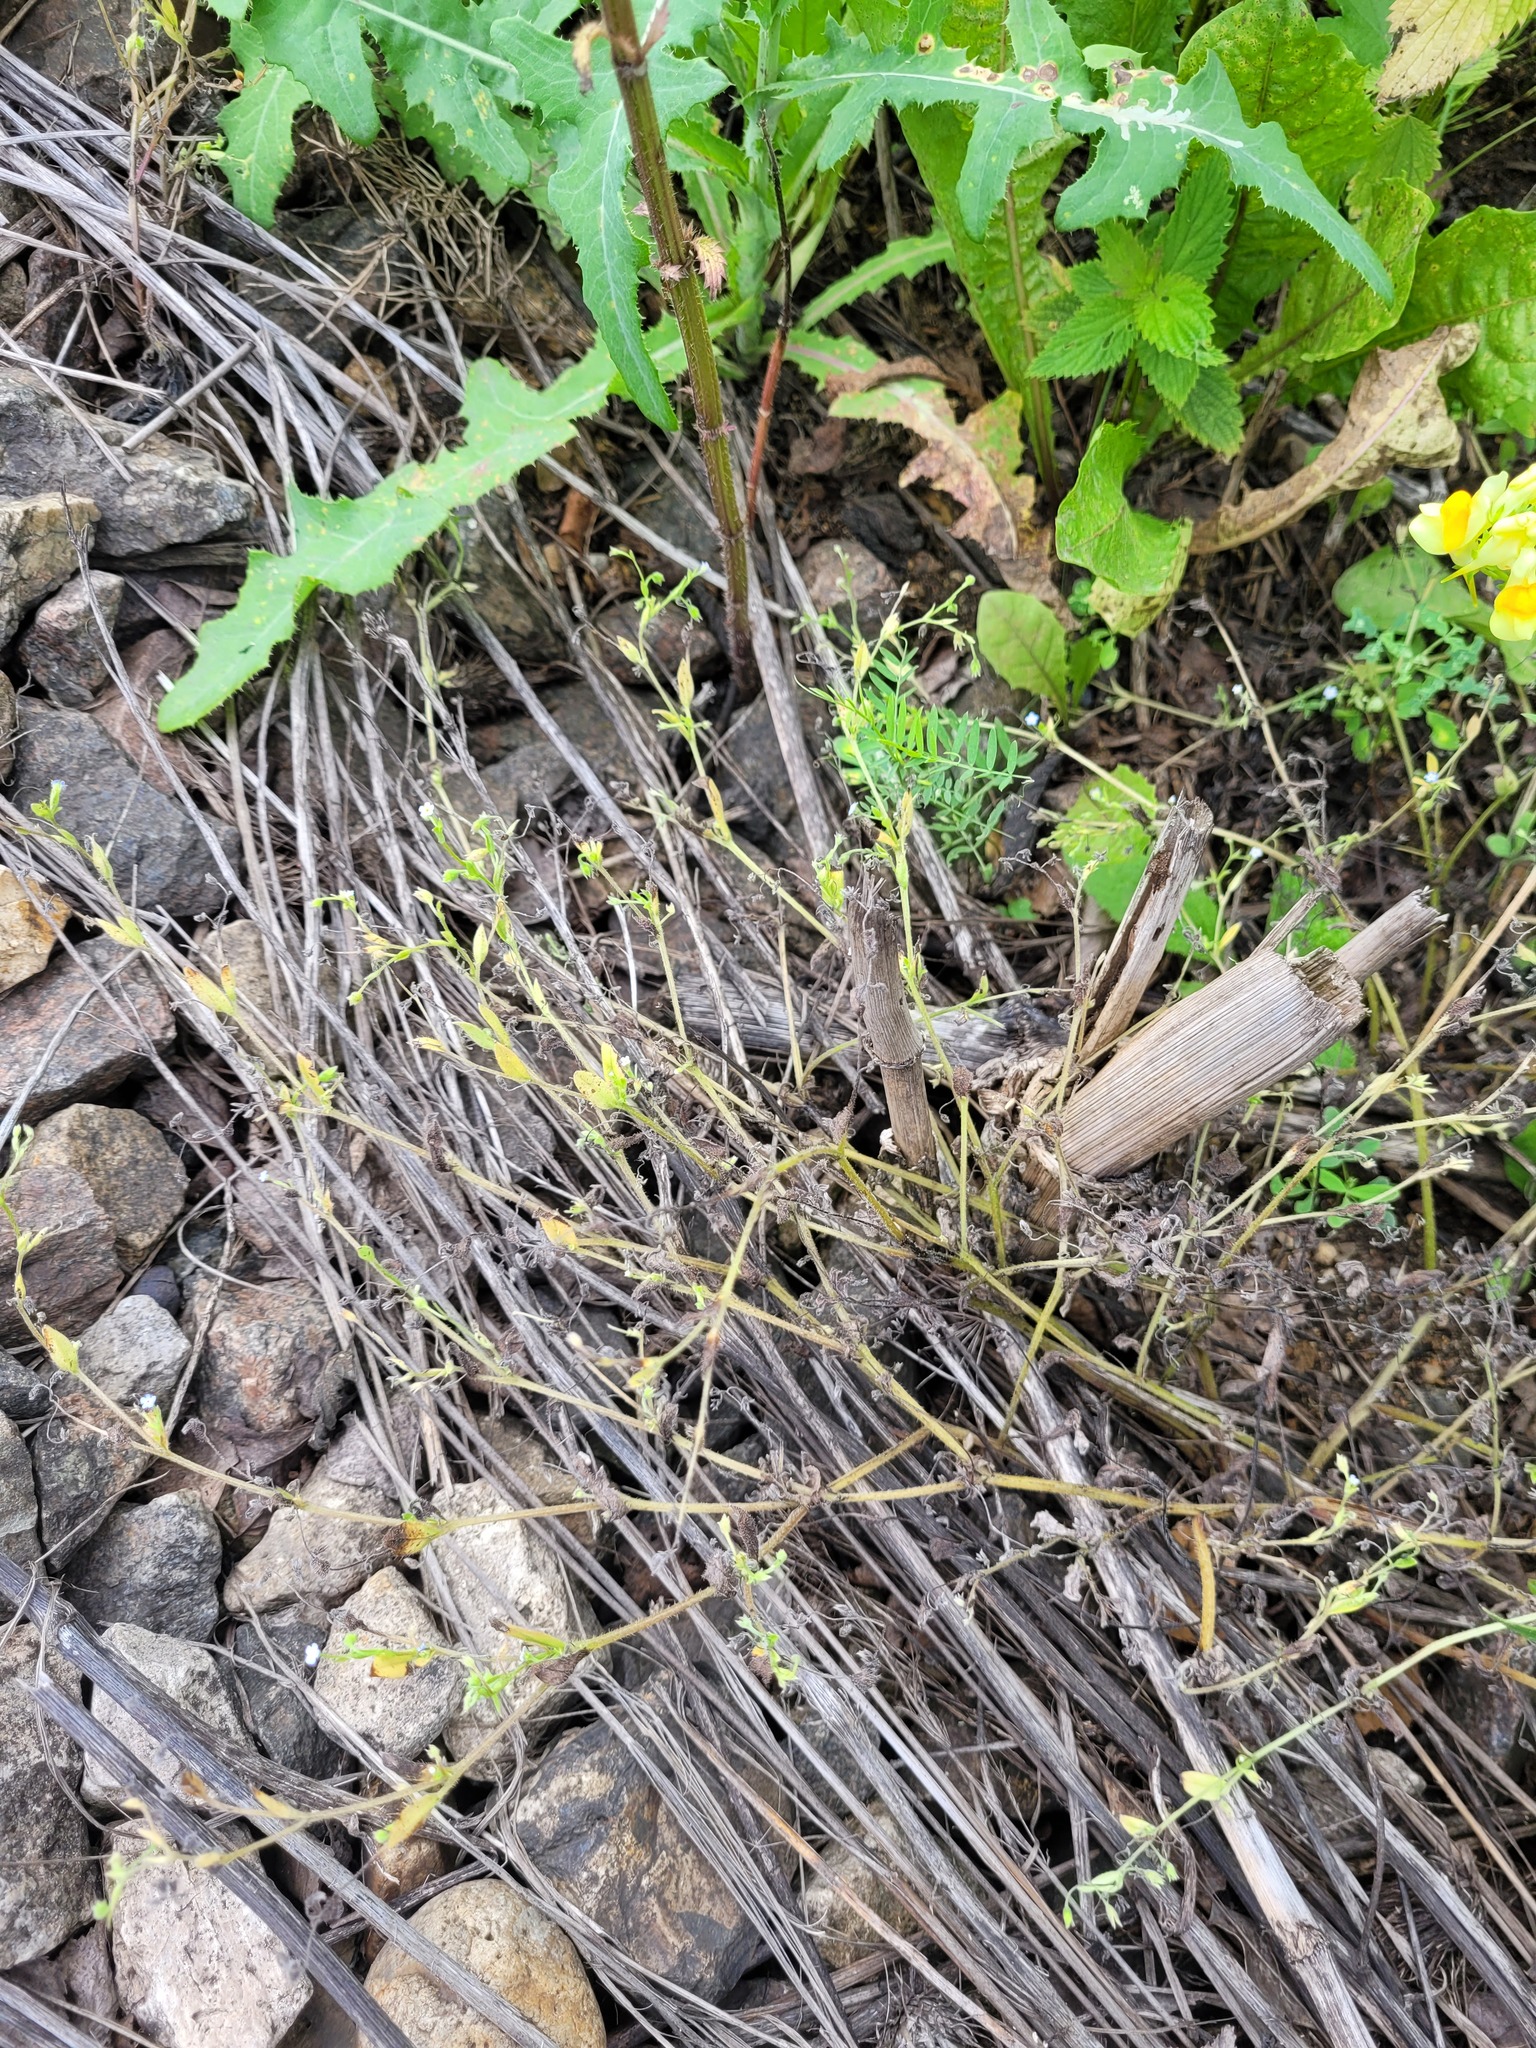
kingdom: Plantae
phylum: Tracheophyta
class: Magnoliopsida
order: Boraginales
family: Boraginaceae
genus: Myosotis
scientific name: Myosotis sparsiflora
